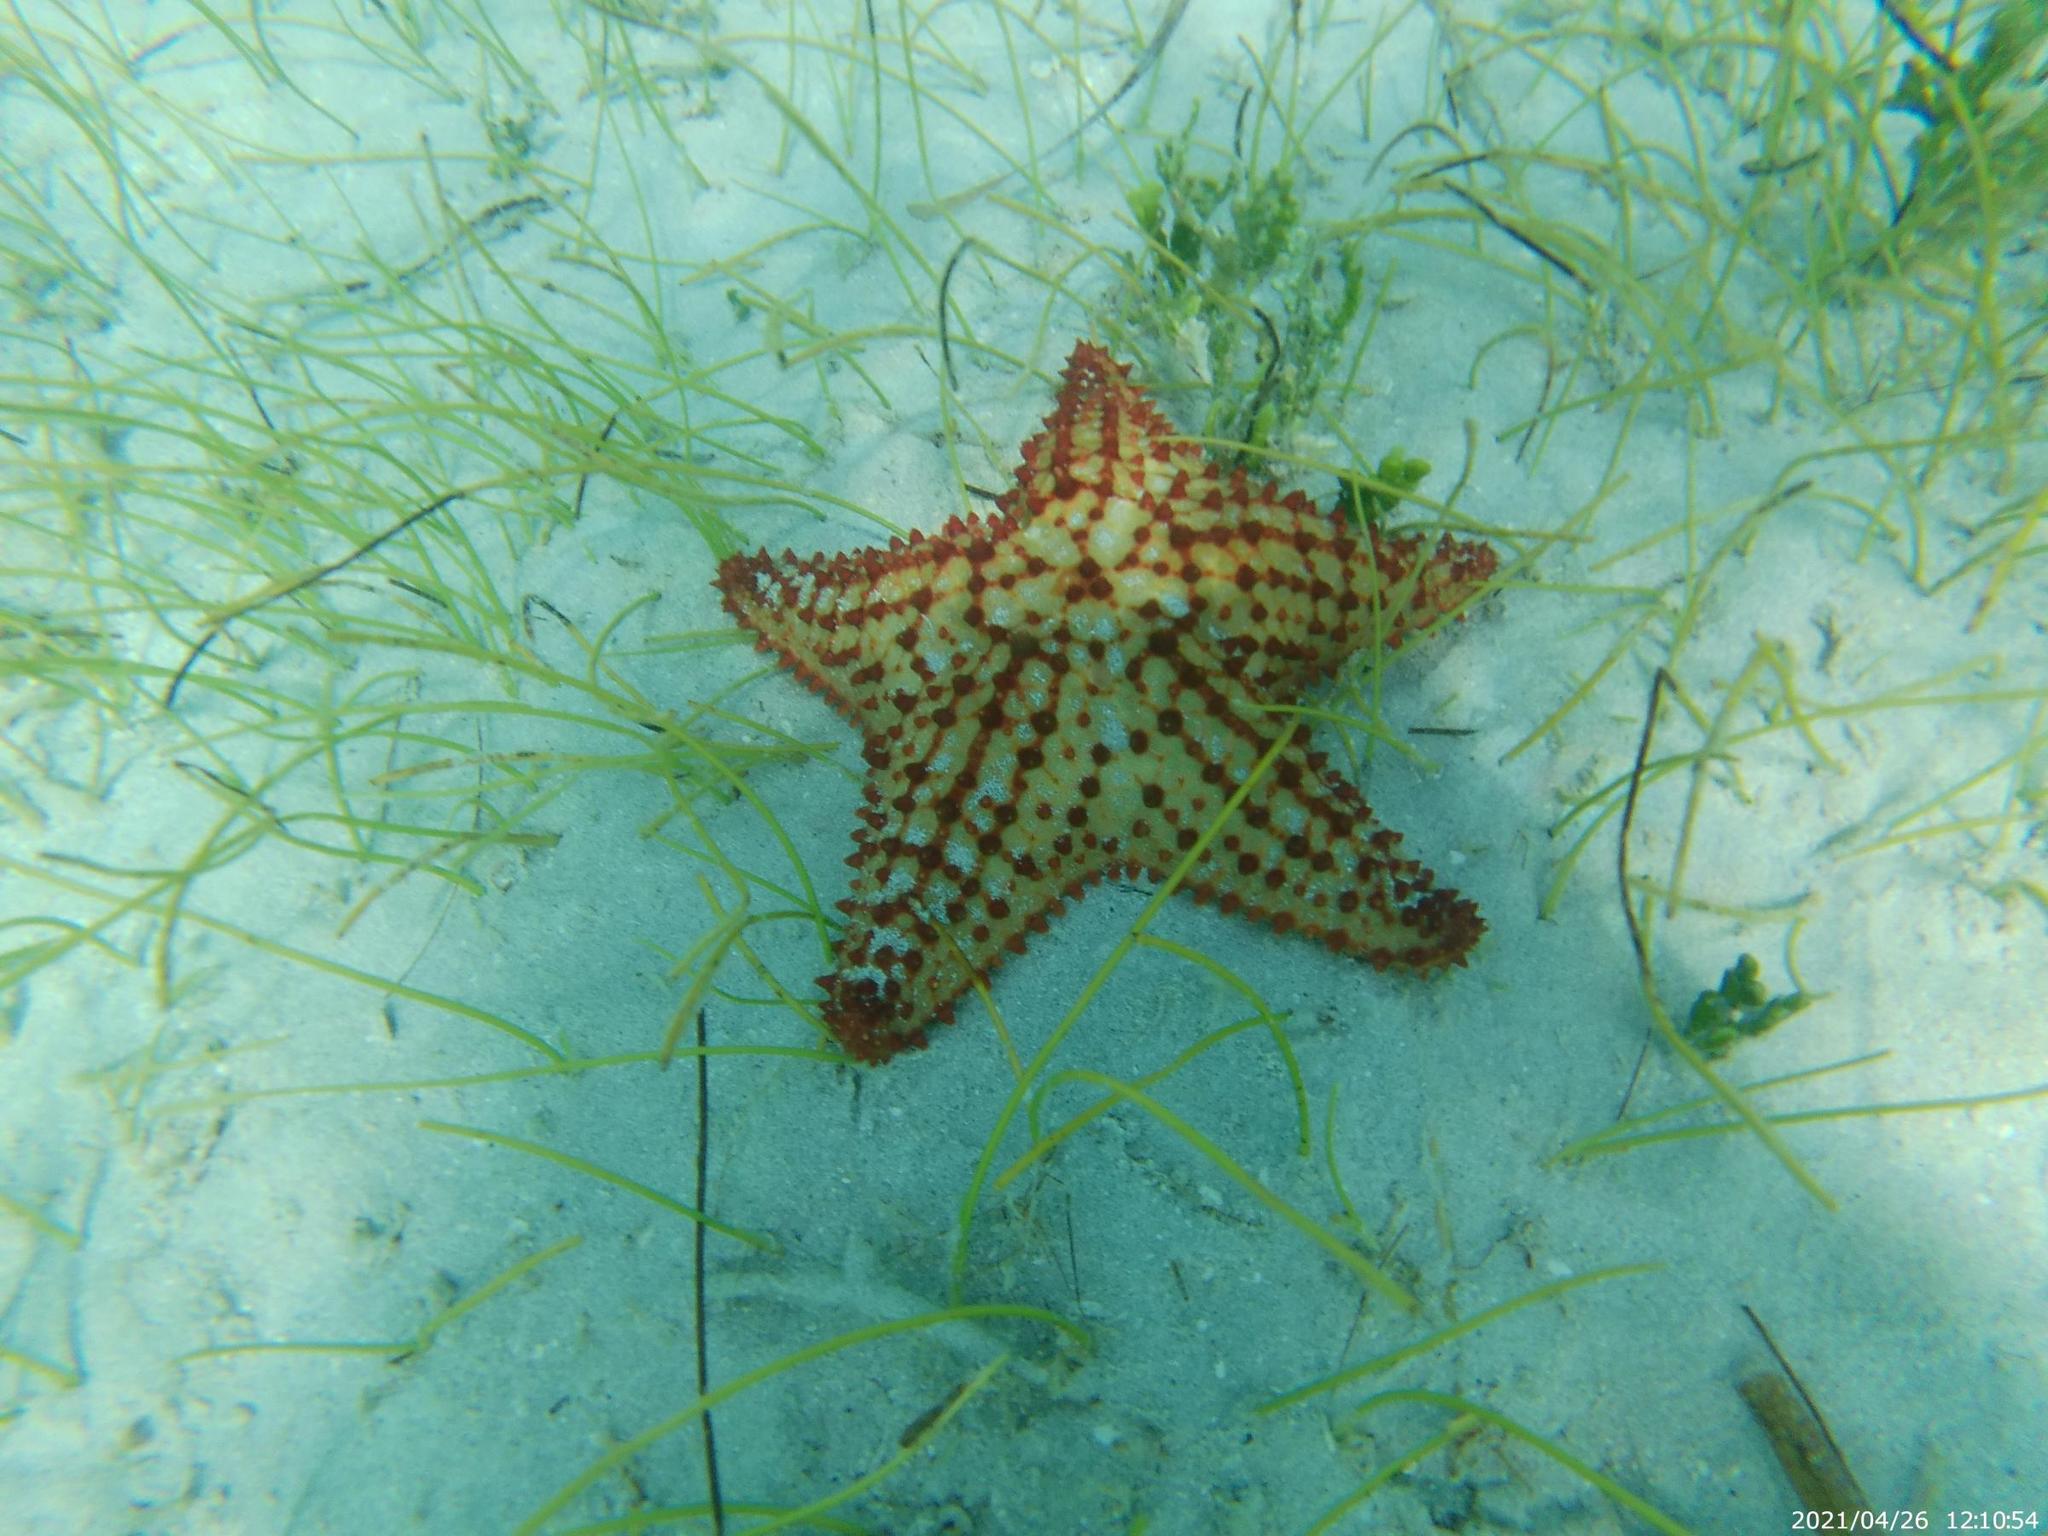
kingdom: Animalia
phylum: Echinodermata
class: Asteroidea
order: Valvatida
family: Oreasteridae
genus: Oreaster
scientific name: Oreaster reticulatus
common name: Cushion sea star
